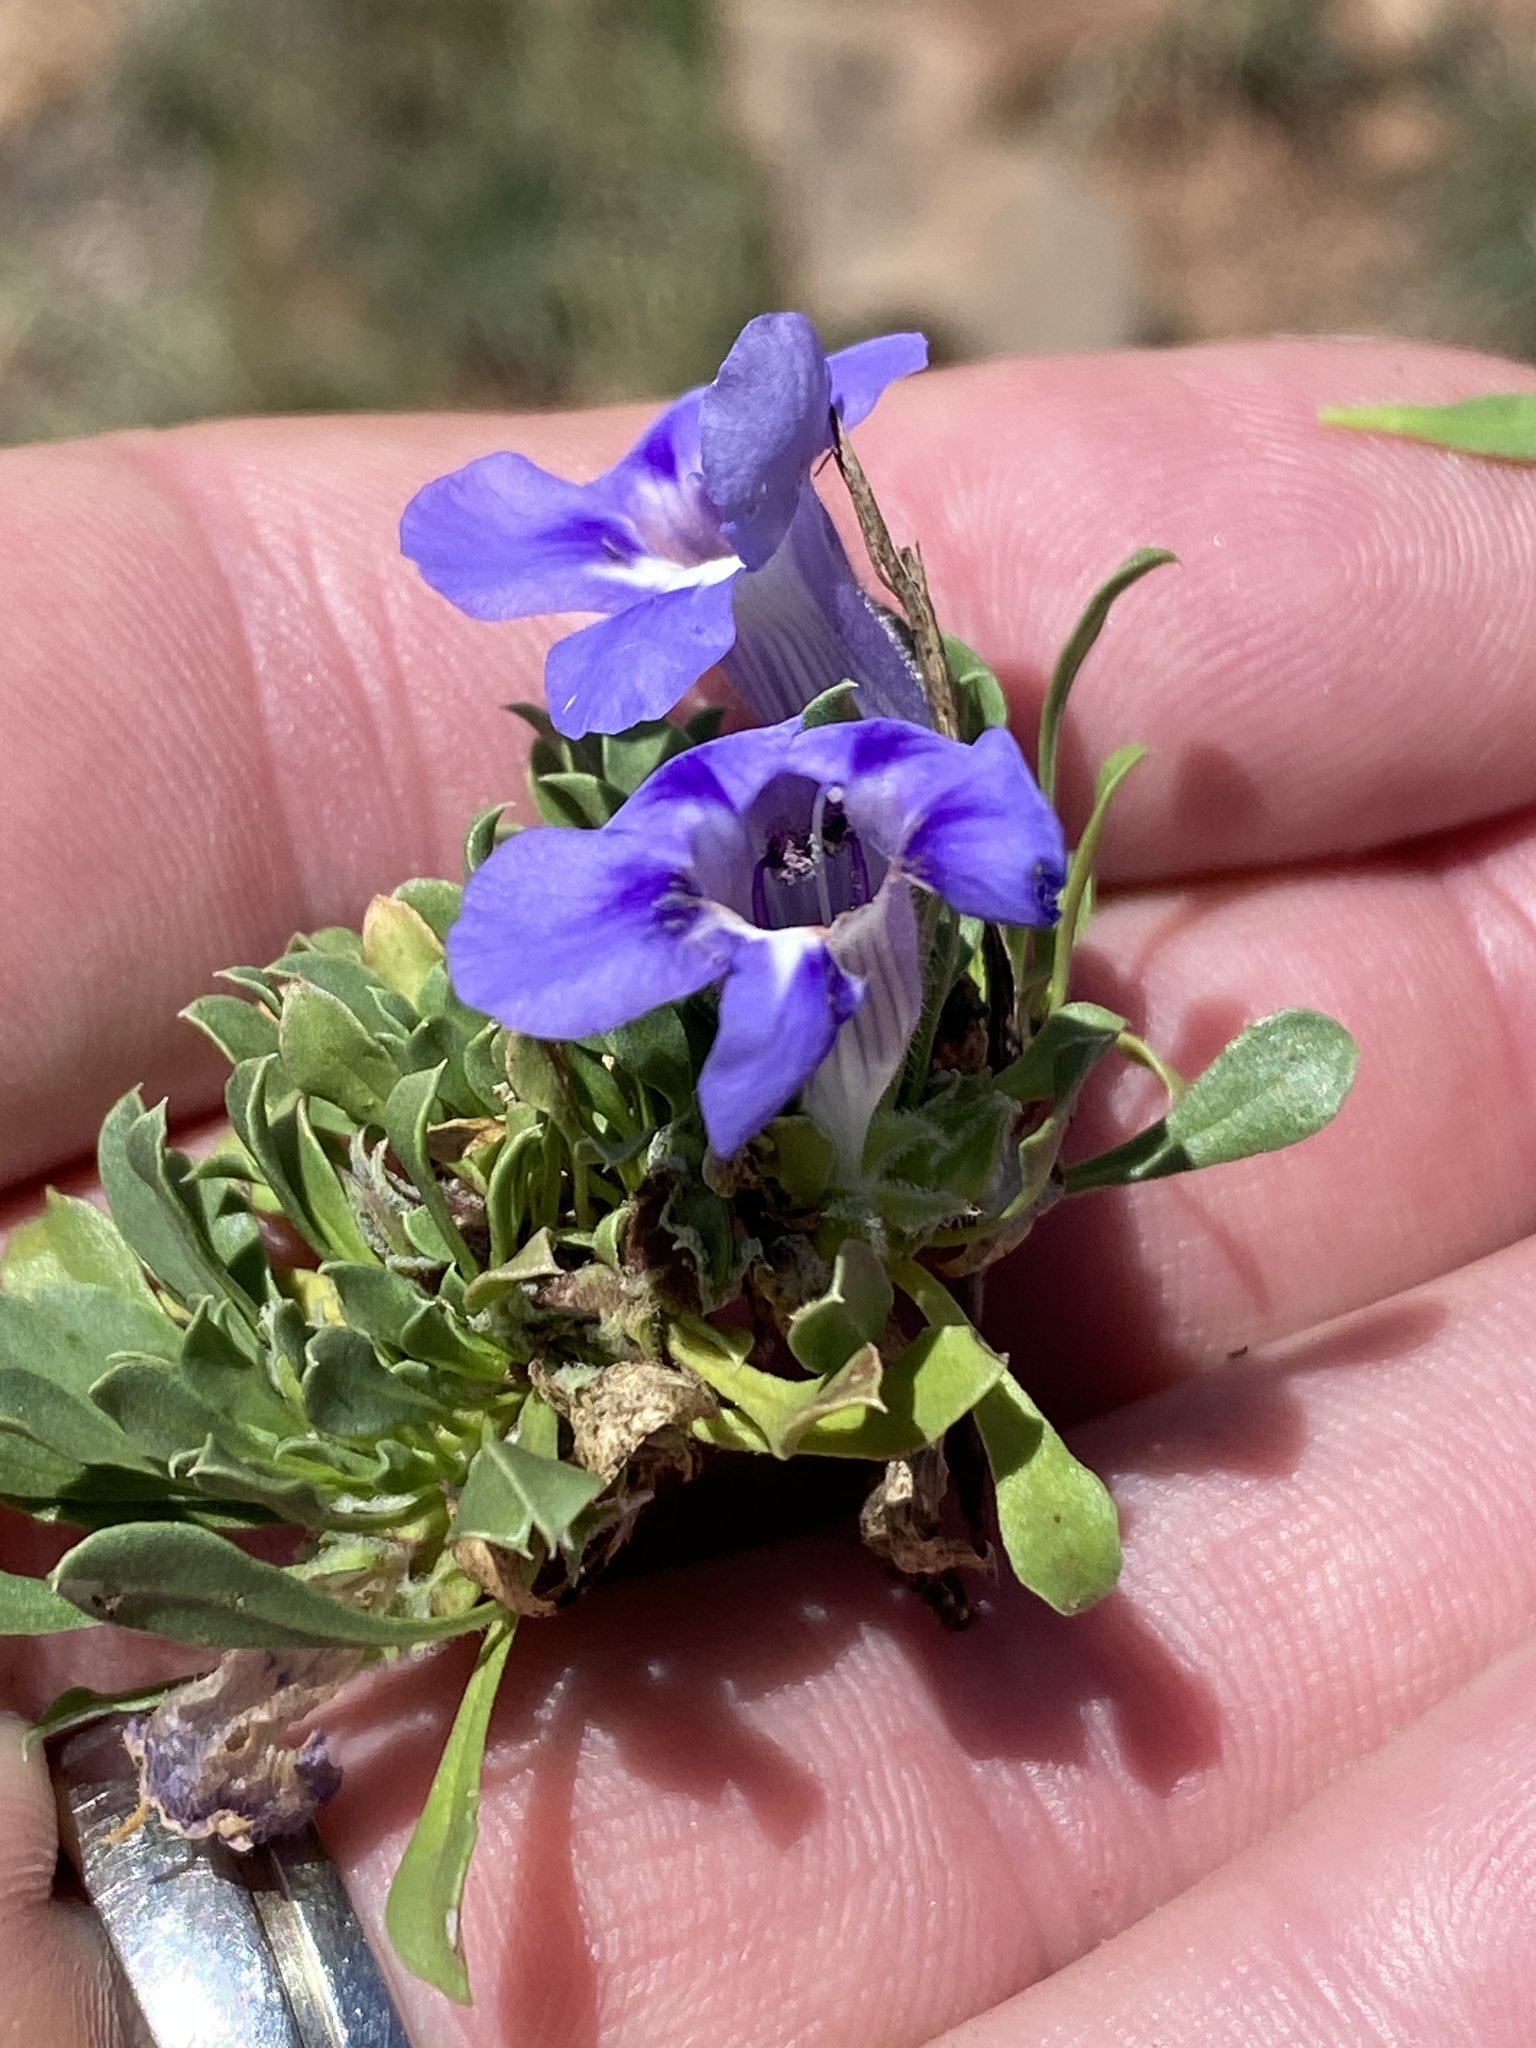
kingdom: Plantae
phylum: Tracheophyta
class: Magnoliopsida
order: Lamiales
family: Scrophulariaceae
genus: Aptosimum
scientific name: Aptosimum indivisum
